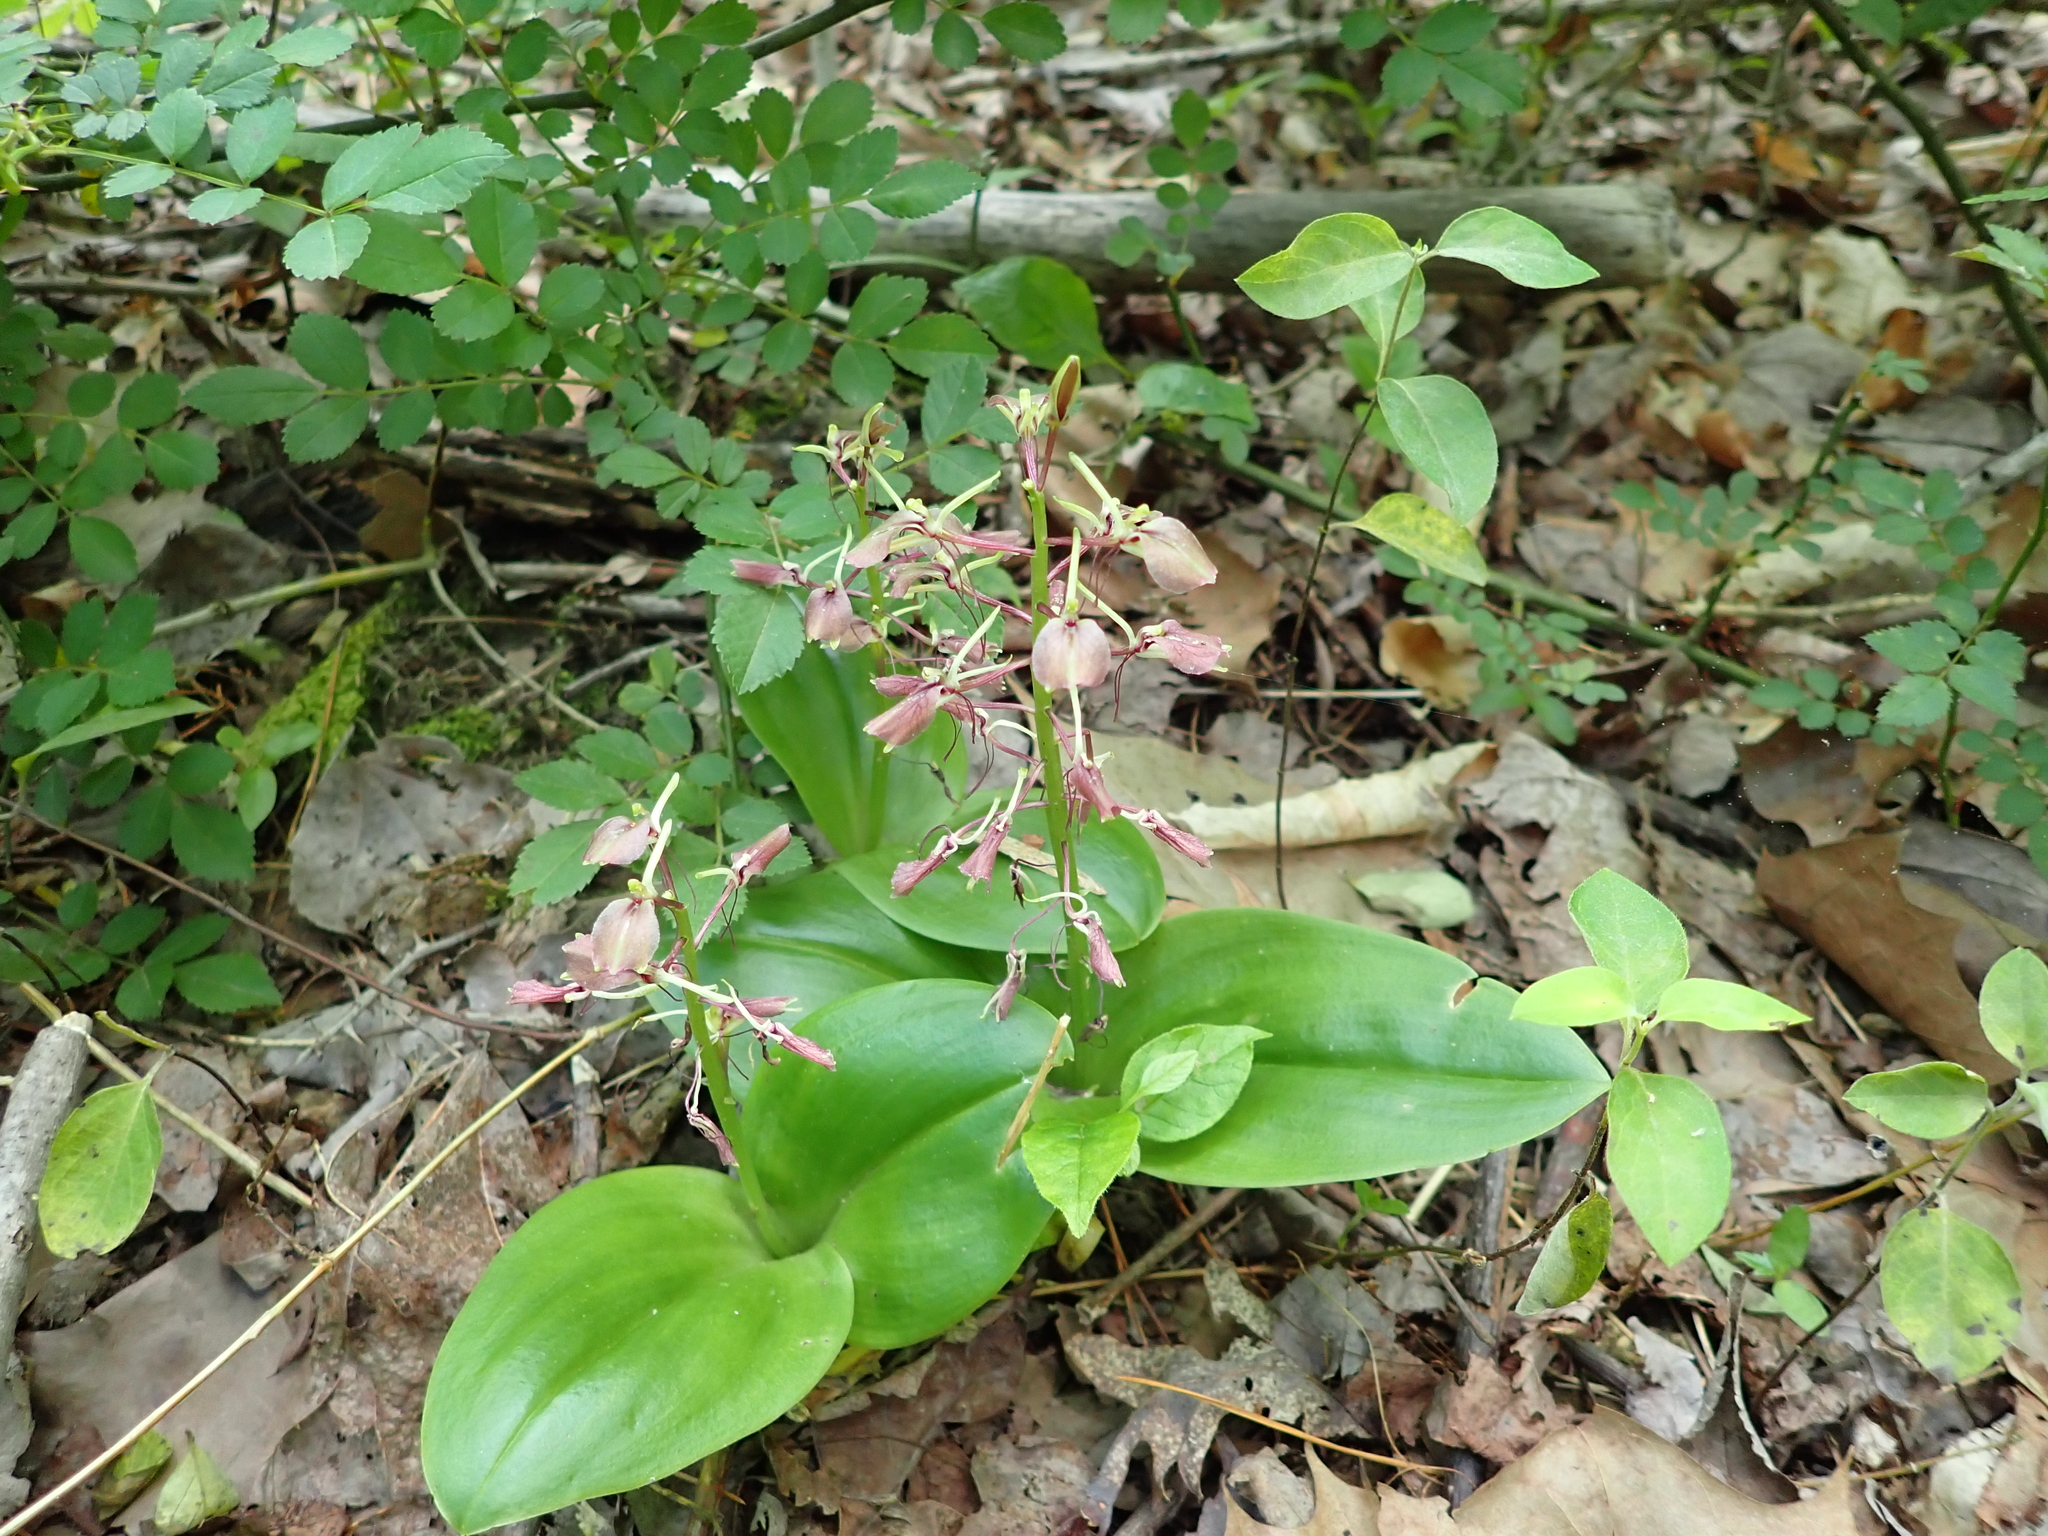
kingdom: Plantae
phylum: Tracheophyta
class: Liliopsida
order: Asparagales
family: Orchidaceae
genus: Liparis
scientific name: Liparis liliifolia
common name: Brown wide-lip orchid
